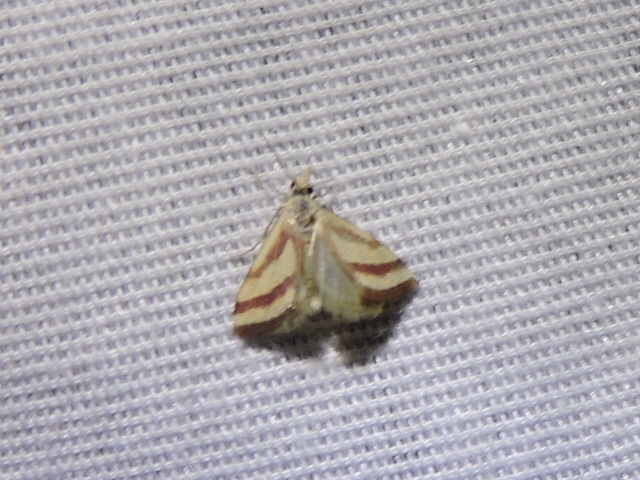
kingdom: Animalia
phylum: Arthropoda
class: Insecta
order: Lepidoptera
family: Crambidae
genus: Microtheoris
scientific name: Microtheoris vibicalis
